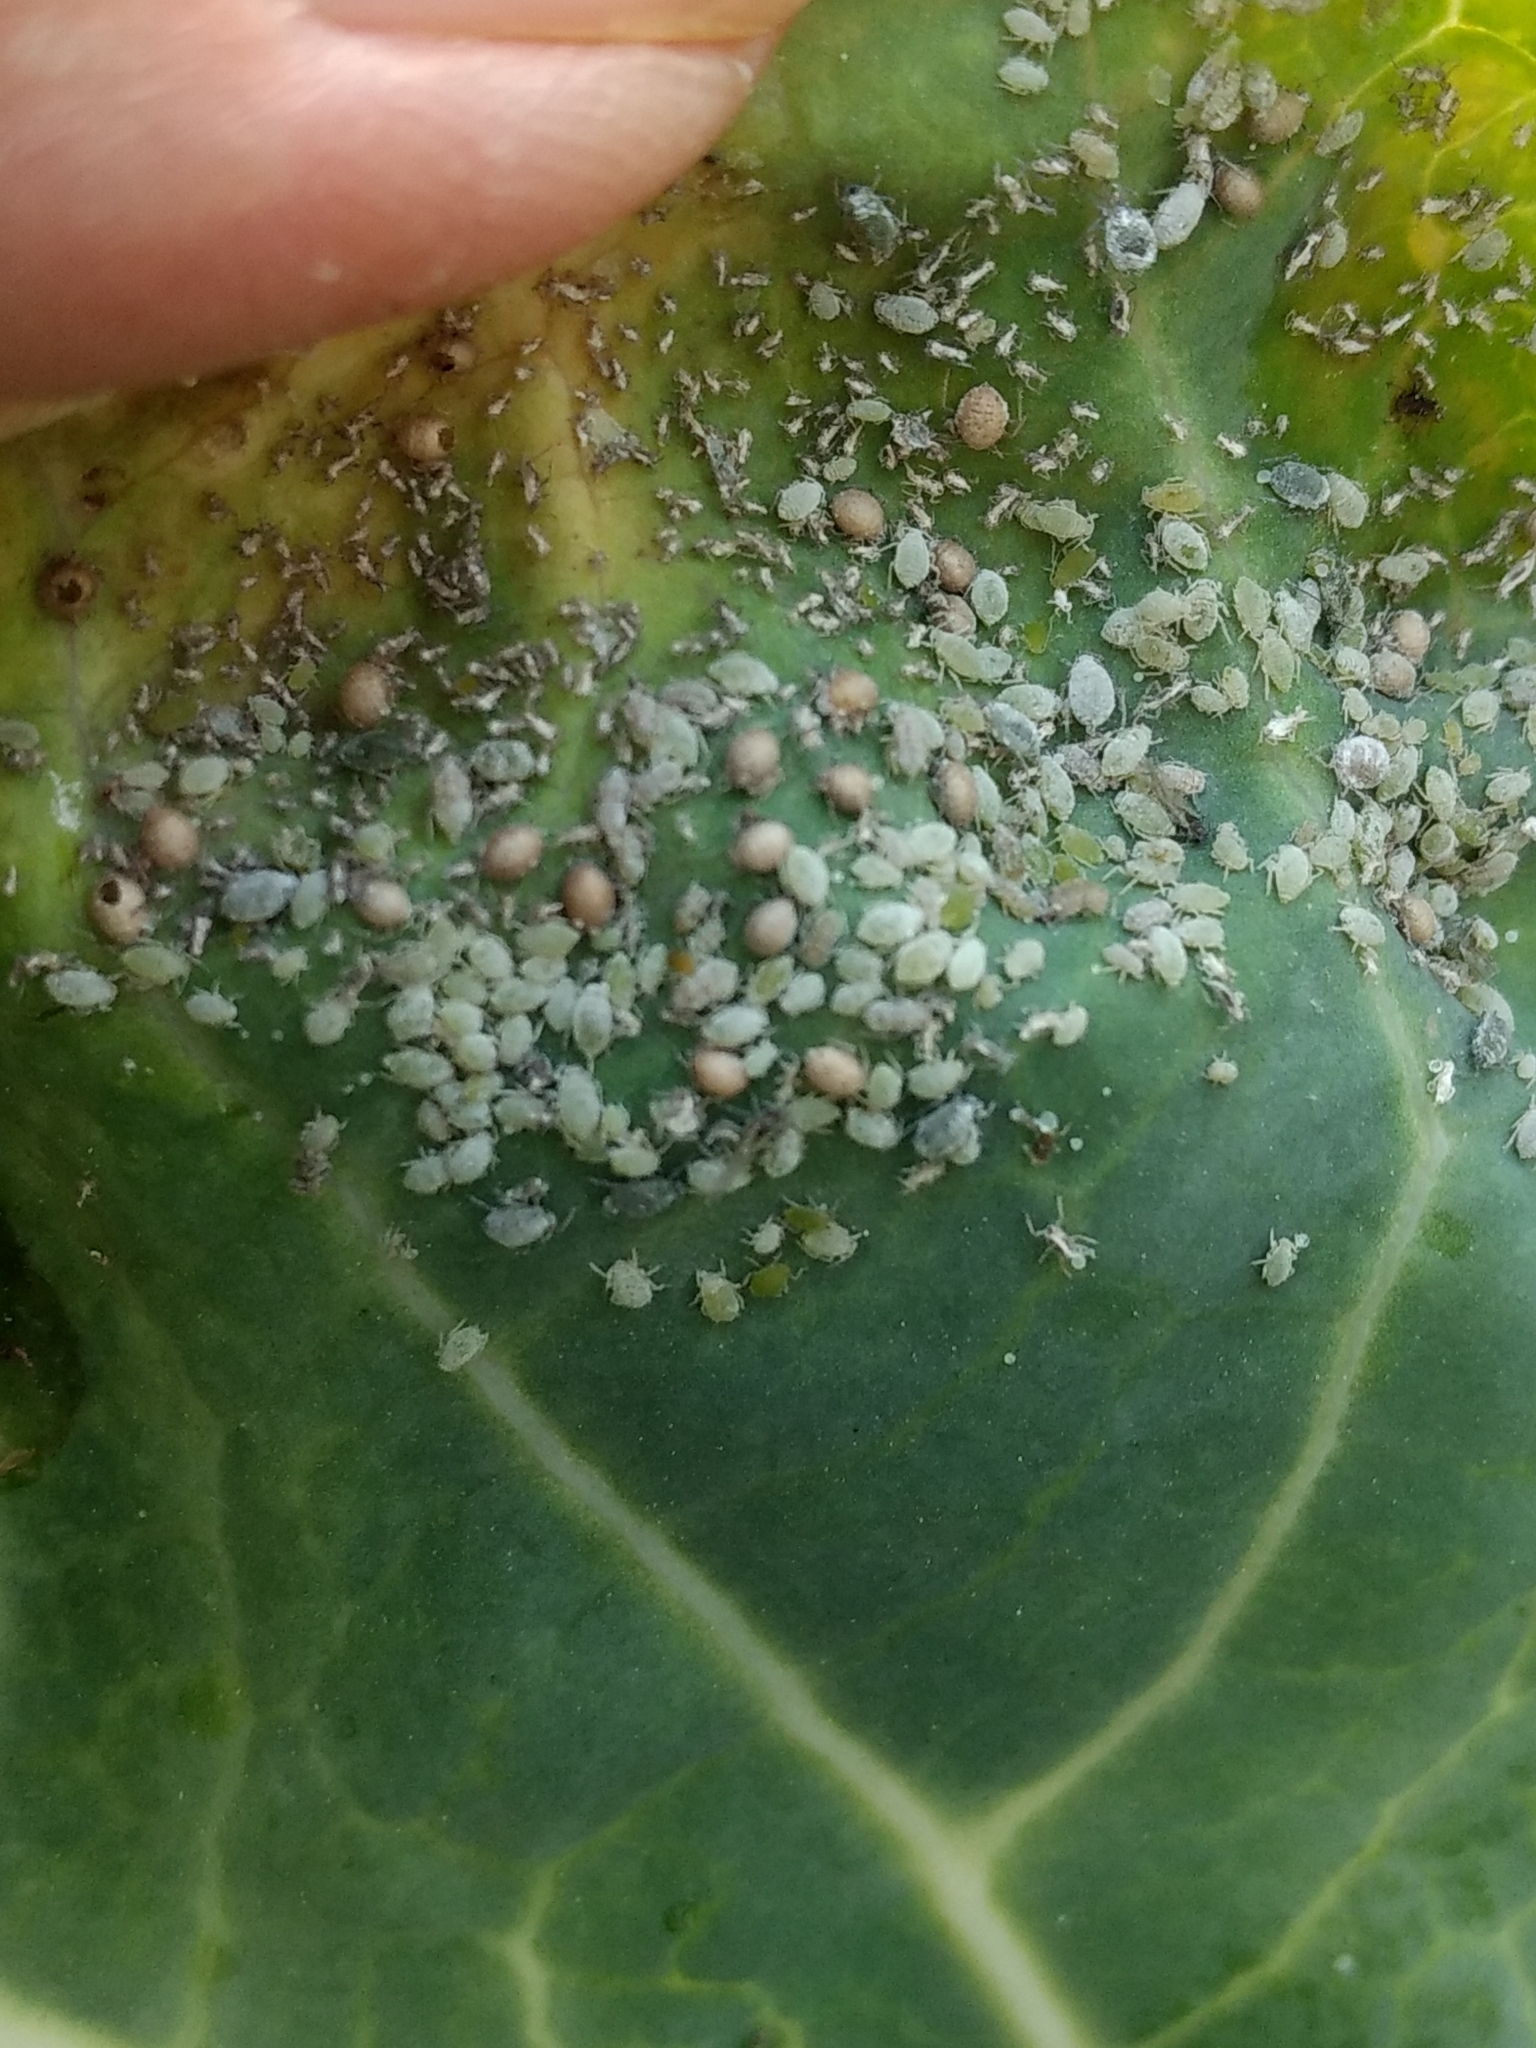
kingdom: Animalia
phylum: Arthropoda
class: Insecta
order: Hemiptera
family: Aphididae
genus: Brevicoryne
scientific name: Brevicoryne brassicae
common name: Cabbage aphid
